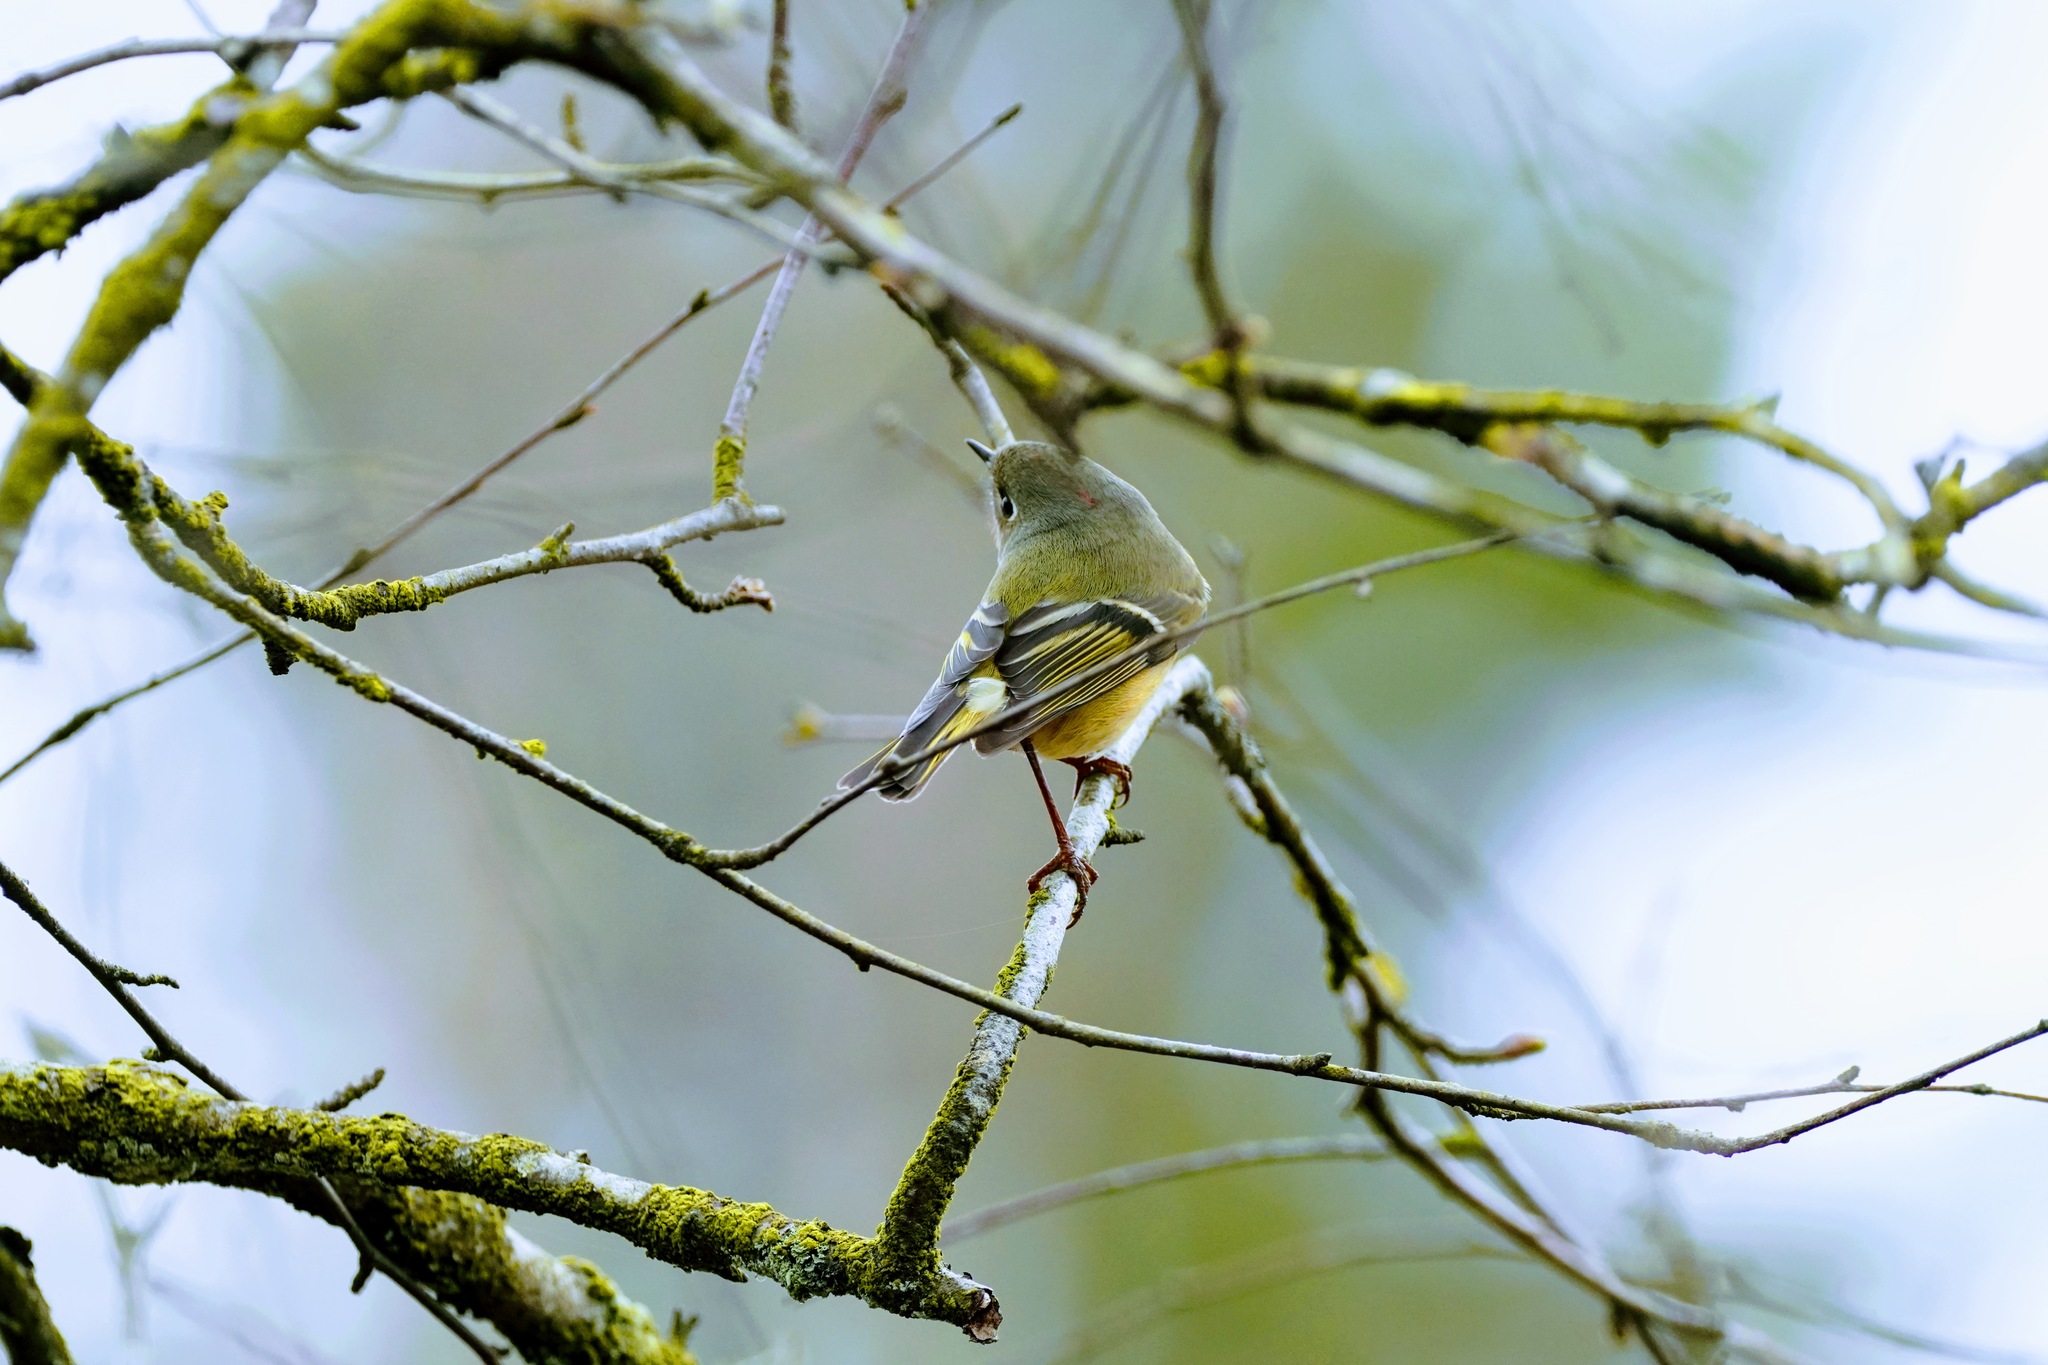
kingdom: Animalia
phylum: Chordata
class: Aves
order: Passeriformes
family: Regulidae
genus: Regulus
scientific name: Regulus calendula
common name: Ruby-crowned kinglet
